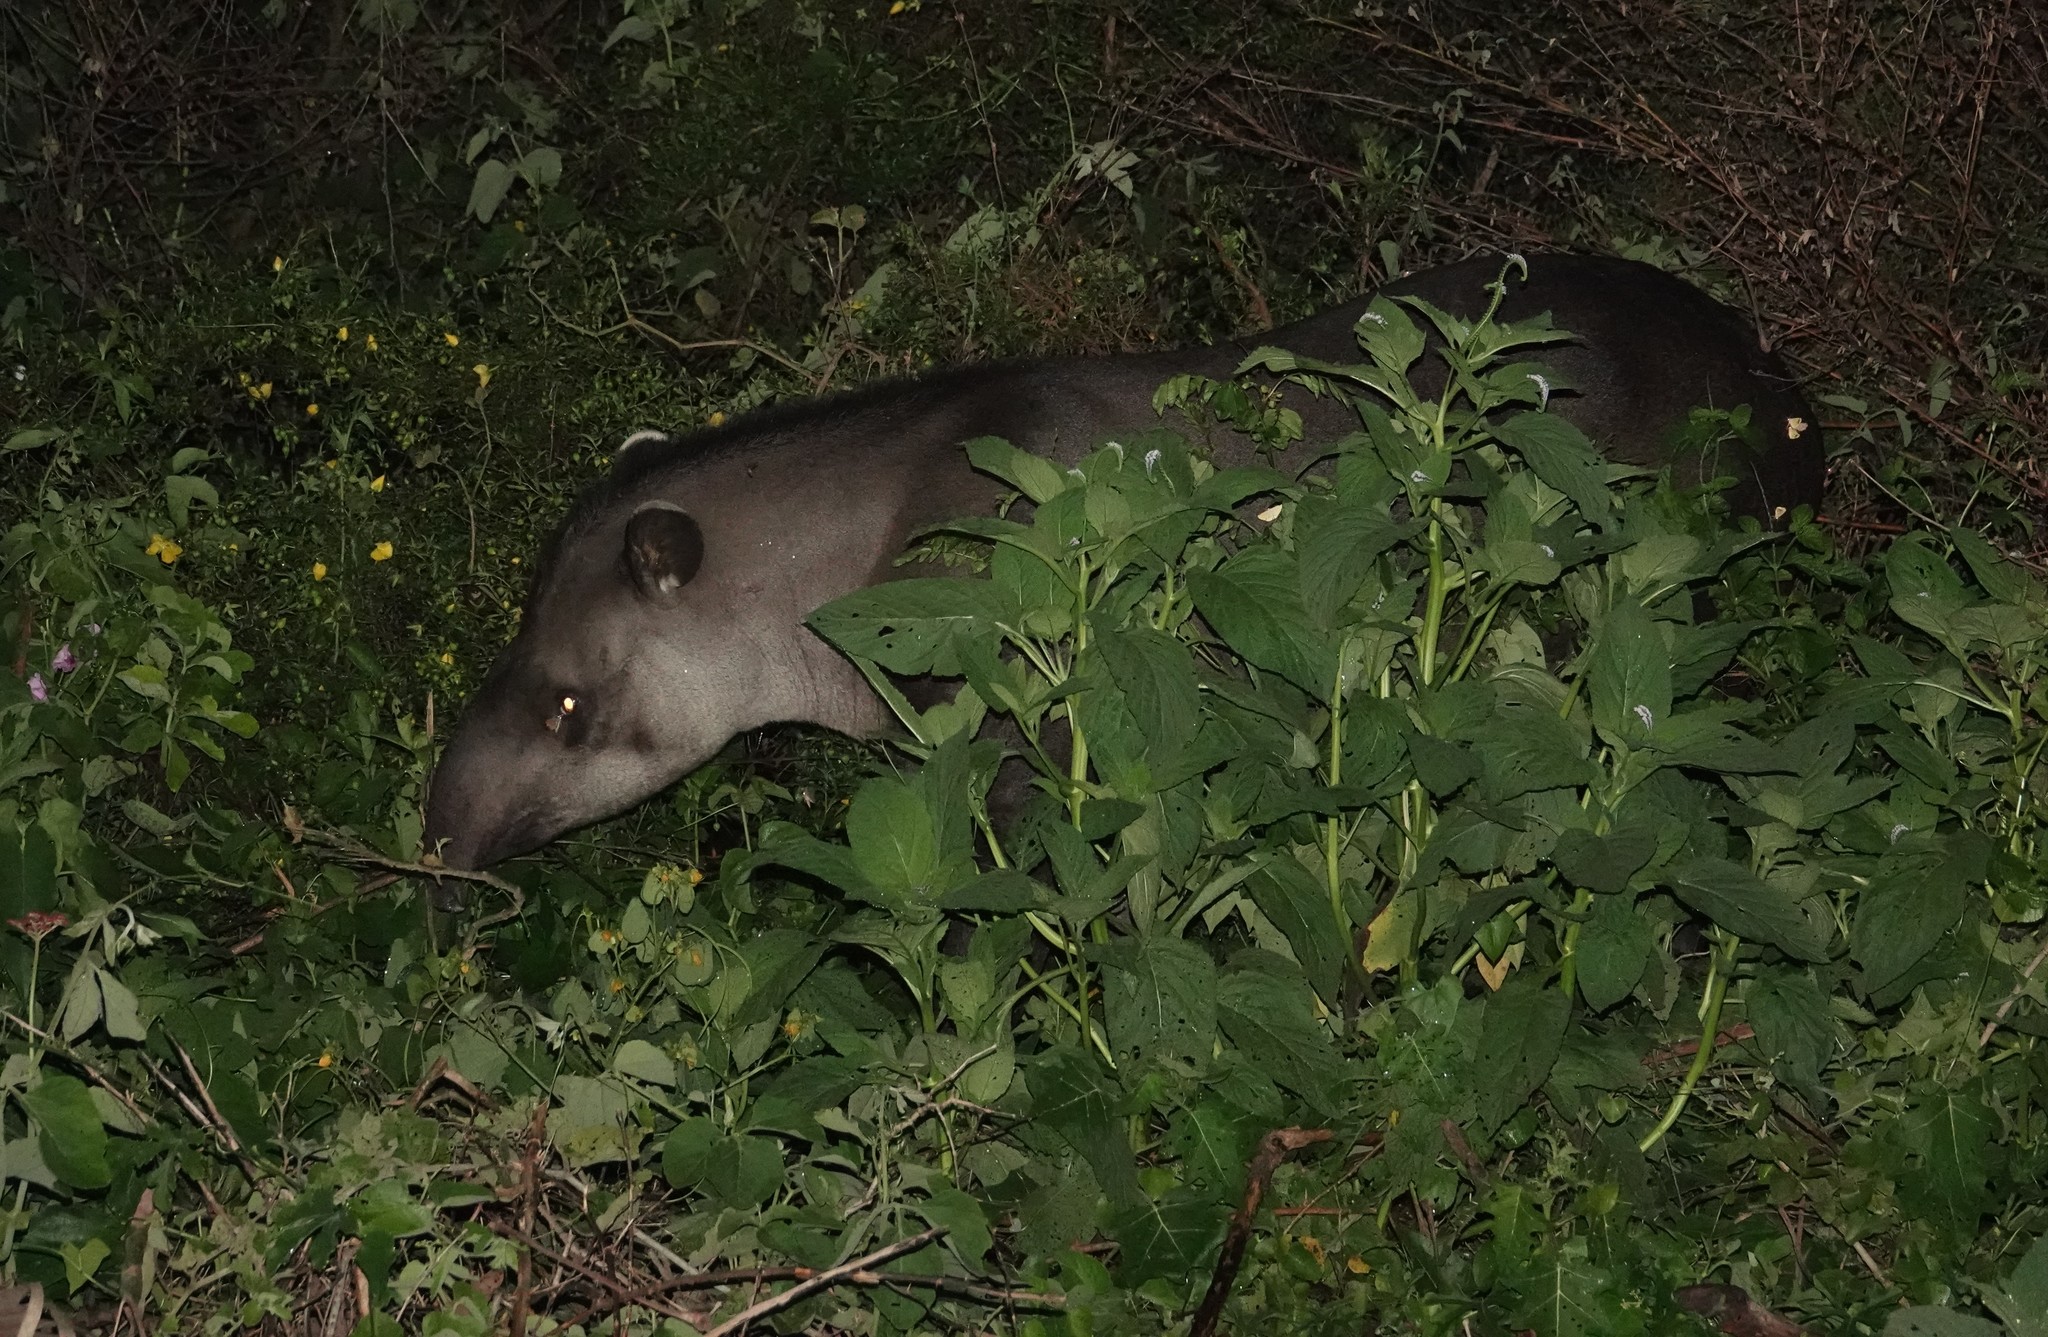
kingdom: Animalia
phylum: Chordata
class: Mammalia
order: Perissodactyla
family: Tapiridae
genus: Tapirus
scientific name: Tapirus terrestris
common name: Brazilian tapir
